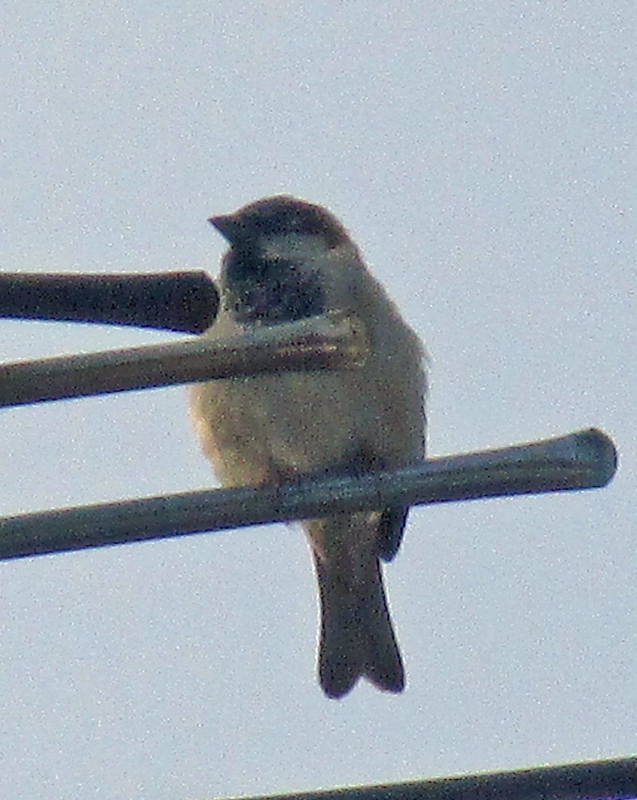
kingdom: Animalia
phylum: Chordata
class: Aves
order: Passeriformes
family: Passeridae
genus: Passer
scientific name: Passer domesticus
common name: House sparrow
